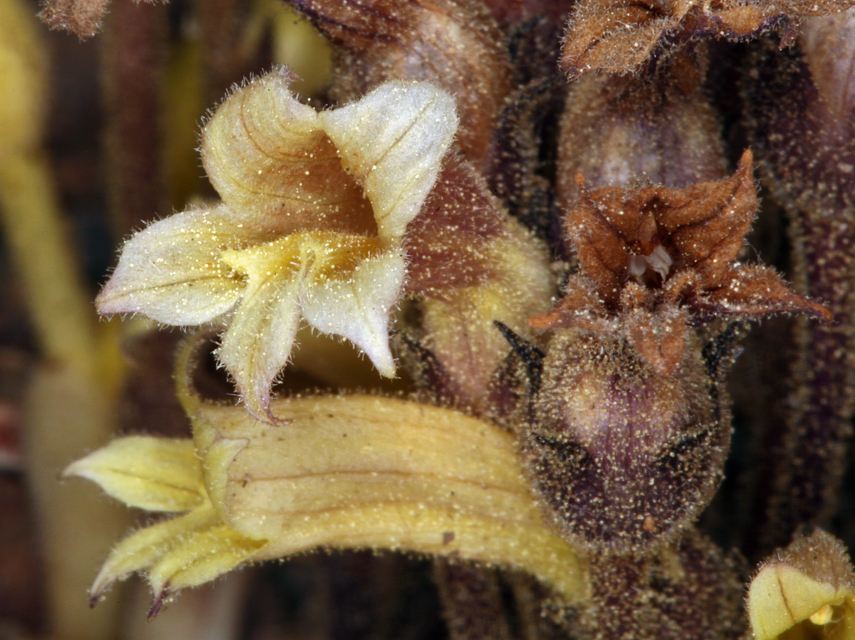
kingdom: Plantae
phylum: Tracheophyta
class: Magnoliopsida
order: Lamiales
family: Orobanchaceae
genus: Aphyllon
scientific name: Aphyllon franciscanum
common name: San francisco broomrape
